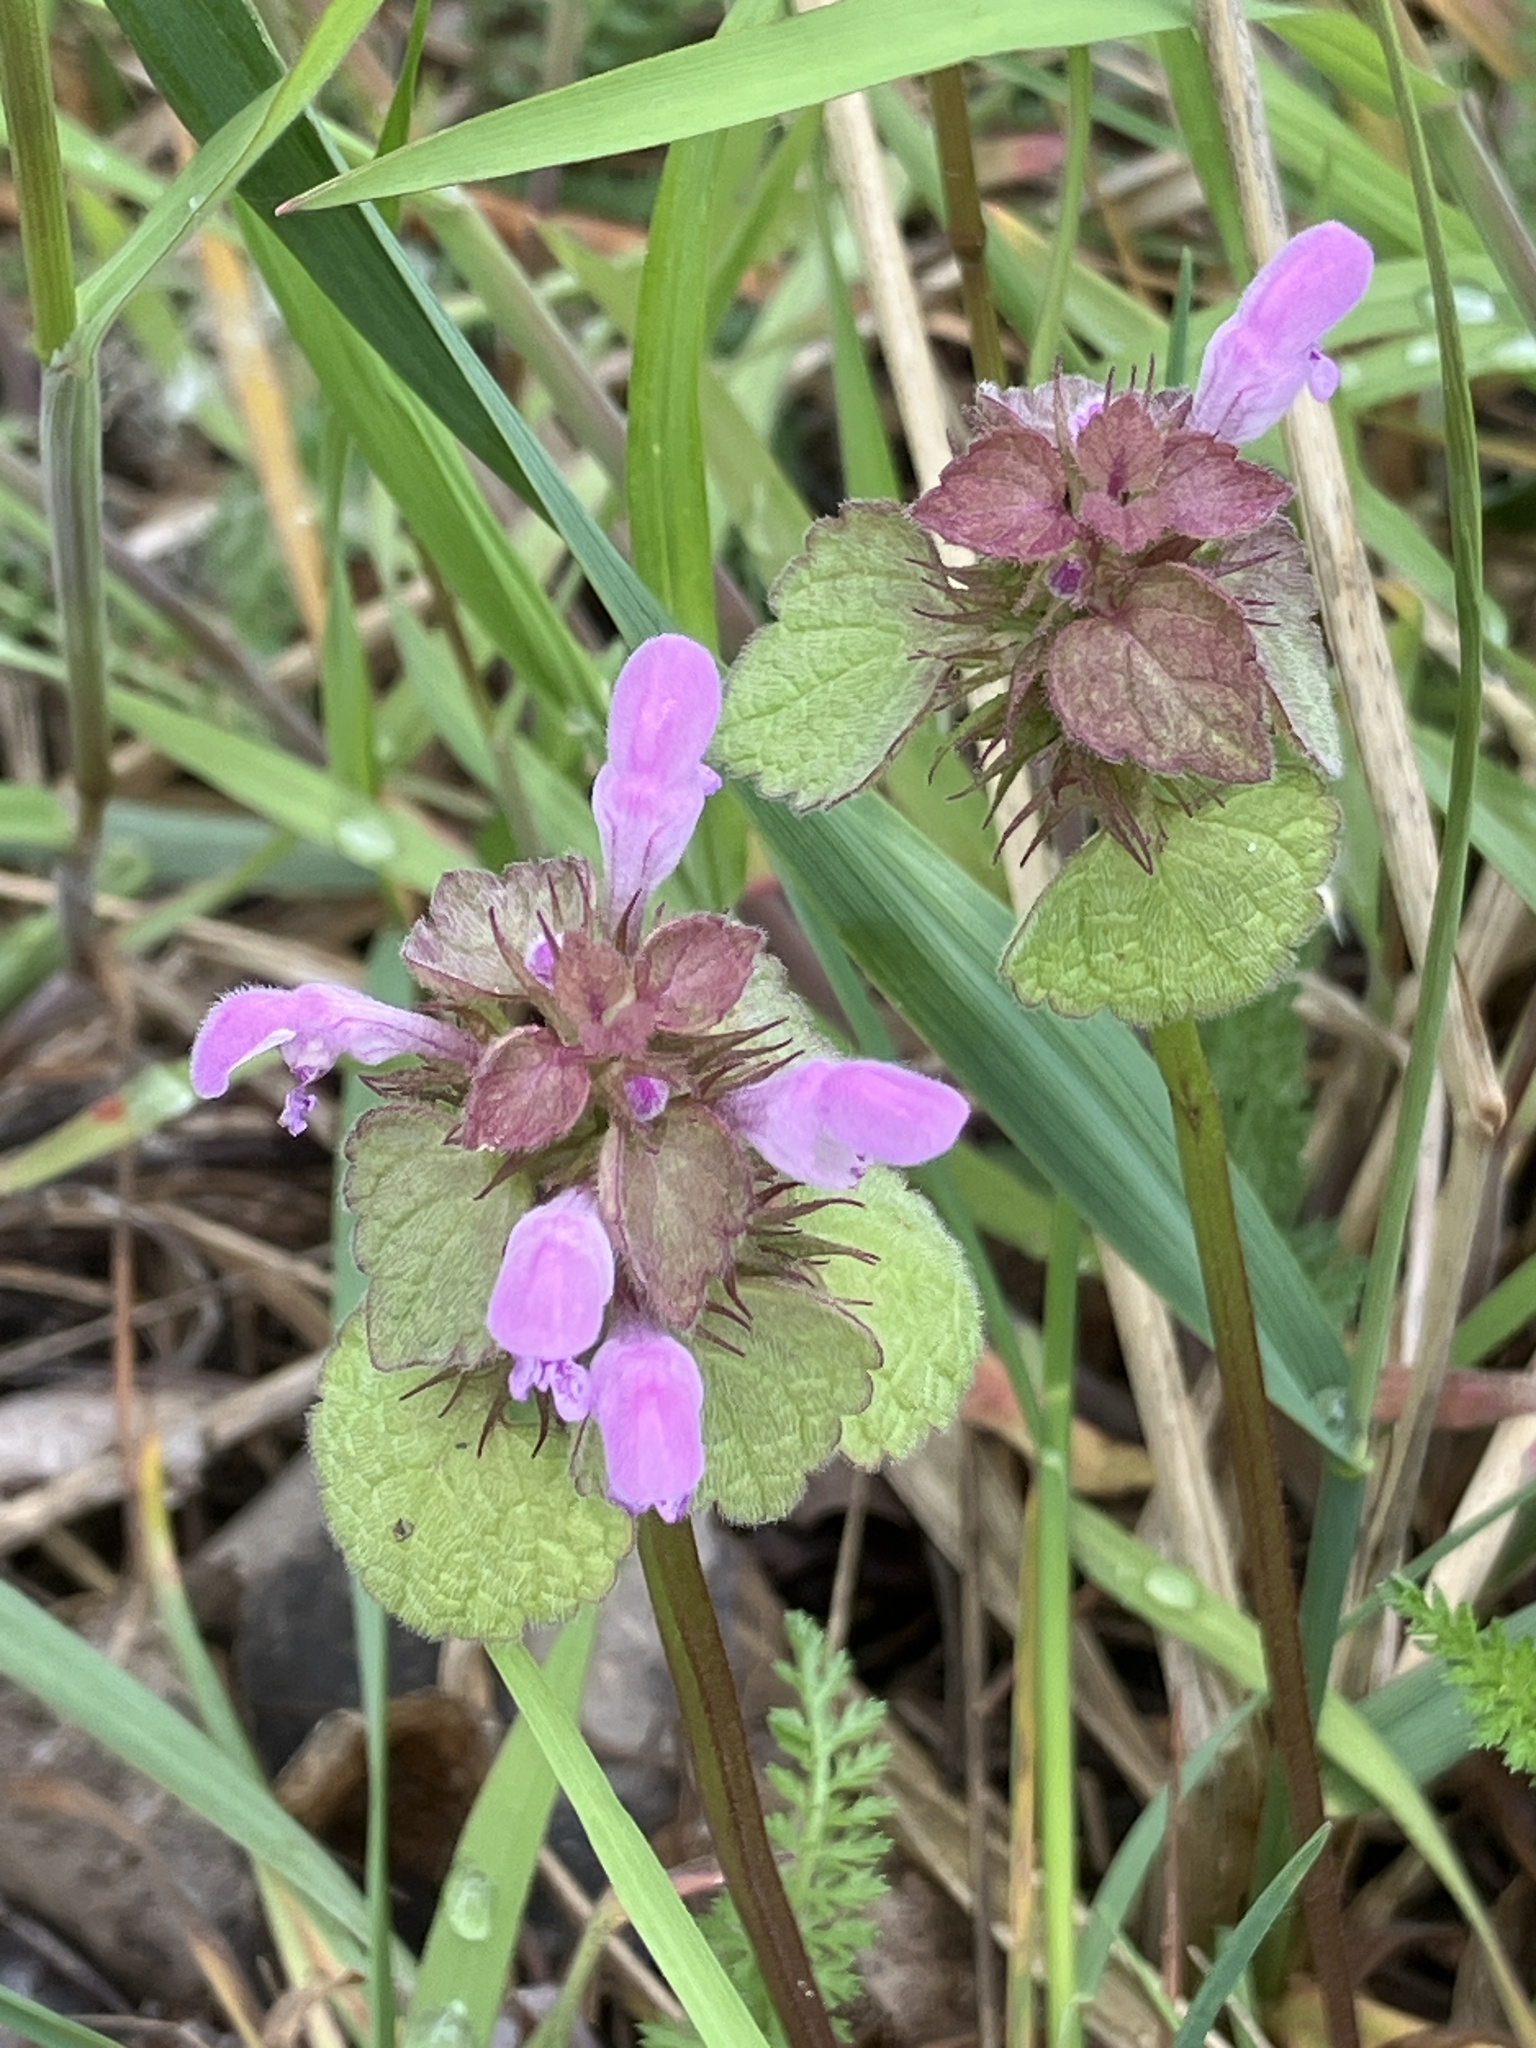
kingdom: Plantae
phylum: Tracheophyta
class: Magnoliopsida
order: Lamiales
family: Lamiaceae
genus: Lamium
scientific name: Lamium purpureum
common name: Red dead-nettle
